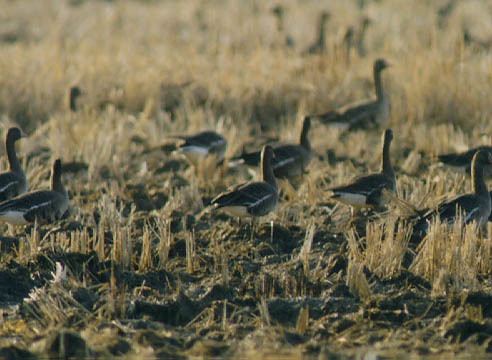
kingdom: Animalia
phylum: Chordata
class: Aves
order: Anseriformes
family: Anatidae
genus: Anser
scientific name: Anser albifrons
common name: Greater white-fronted goose
